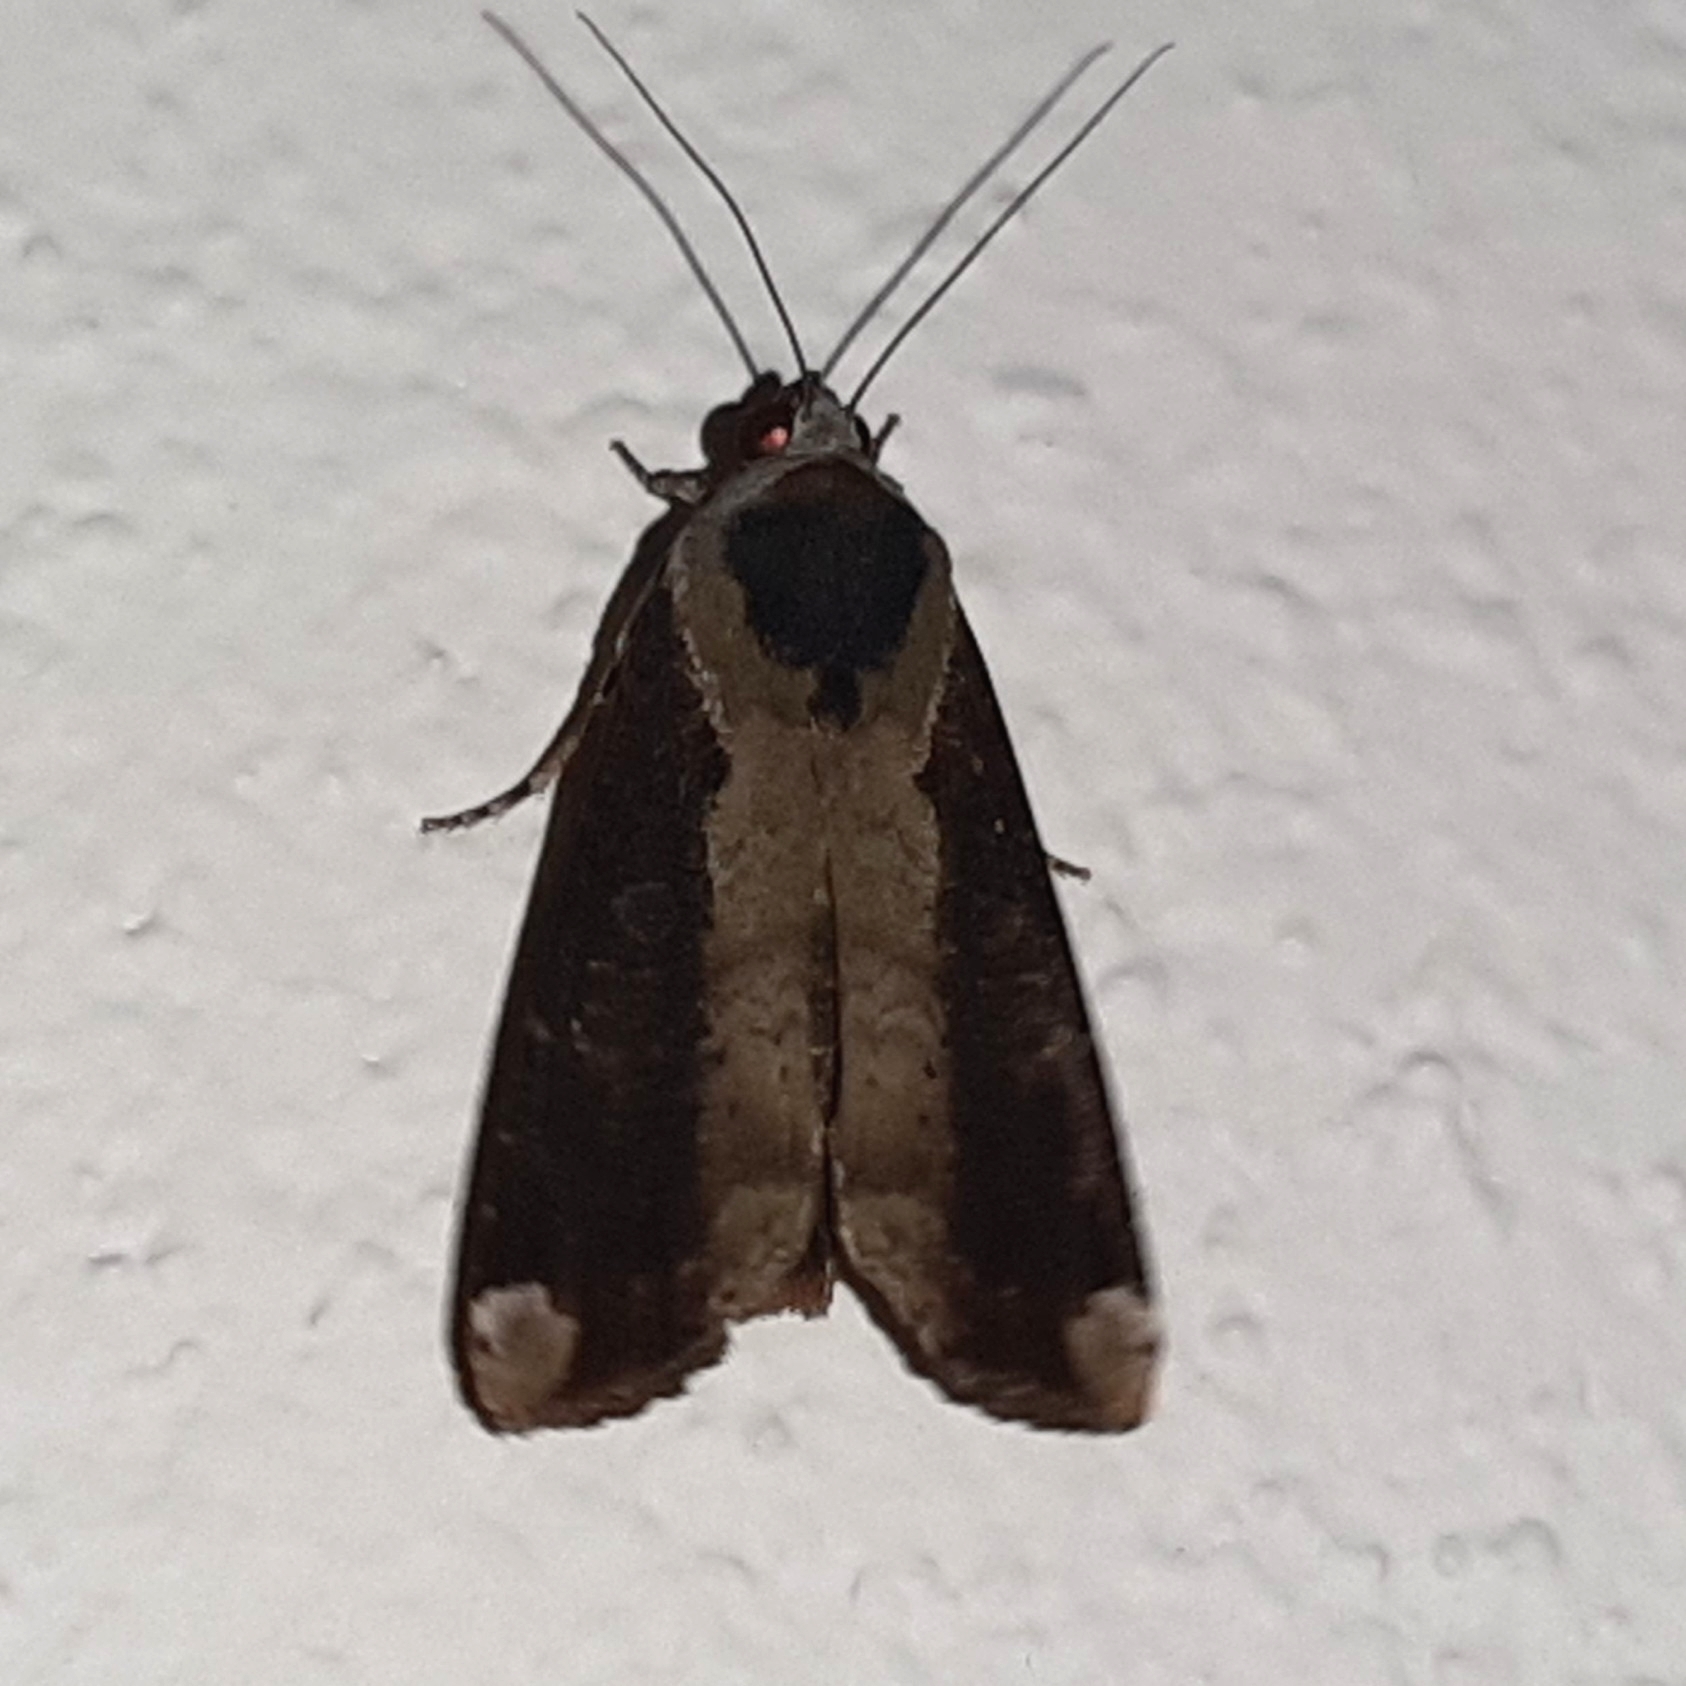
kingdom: Animalia
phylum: Arthropoda
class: Insecta
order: Lepidoptera
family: Noctuidae
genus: Magusa
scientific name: Magusa divaricata
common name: Orb narrow-winged moth
